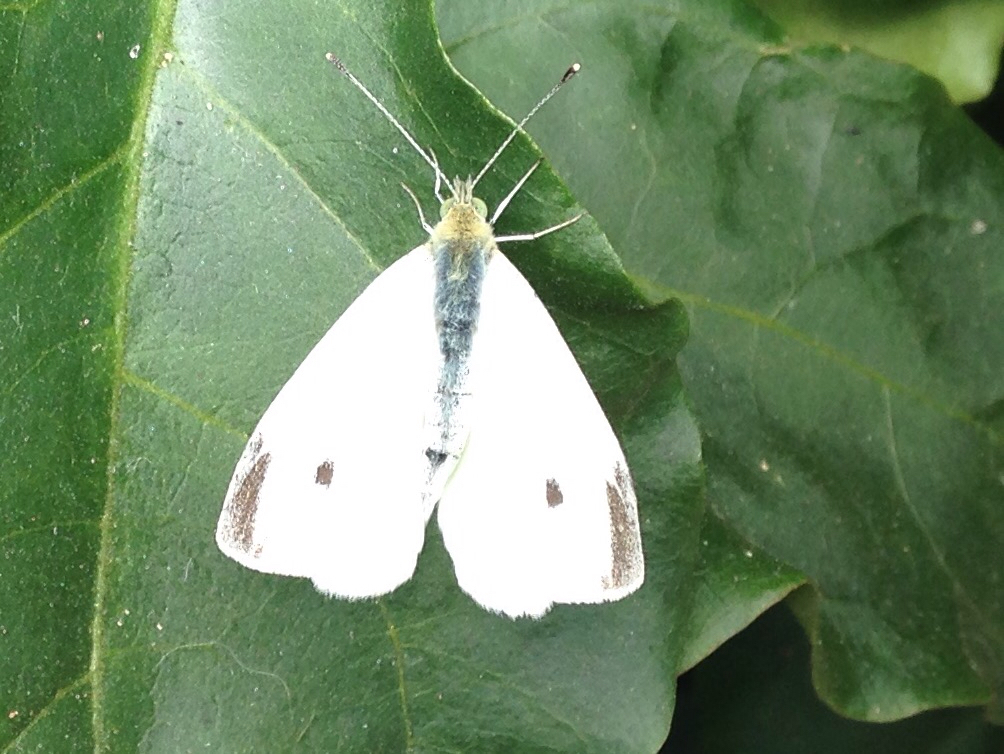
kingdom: Animalia
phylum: Arthropoda
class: Insecta
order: Lepidoptera
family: Pieridae
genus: Pieris
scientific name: Pieris rapae
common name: Small white
